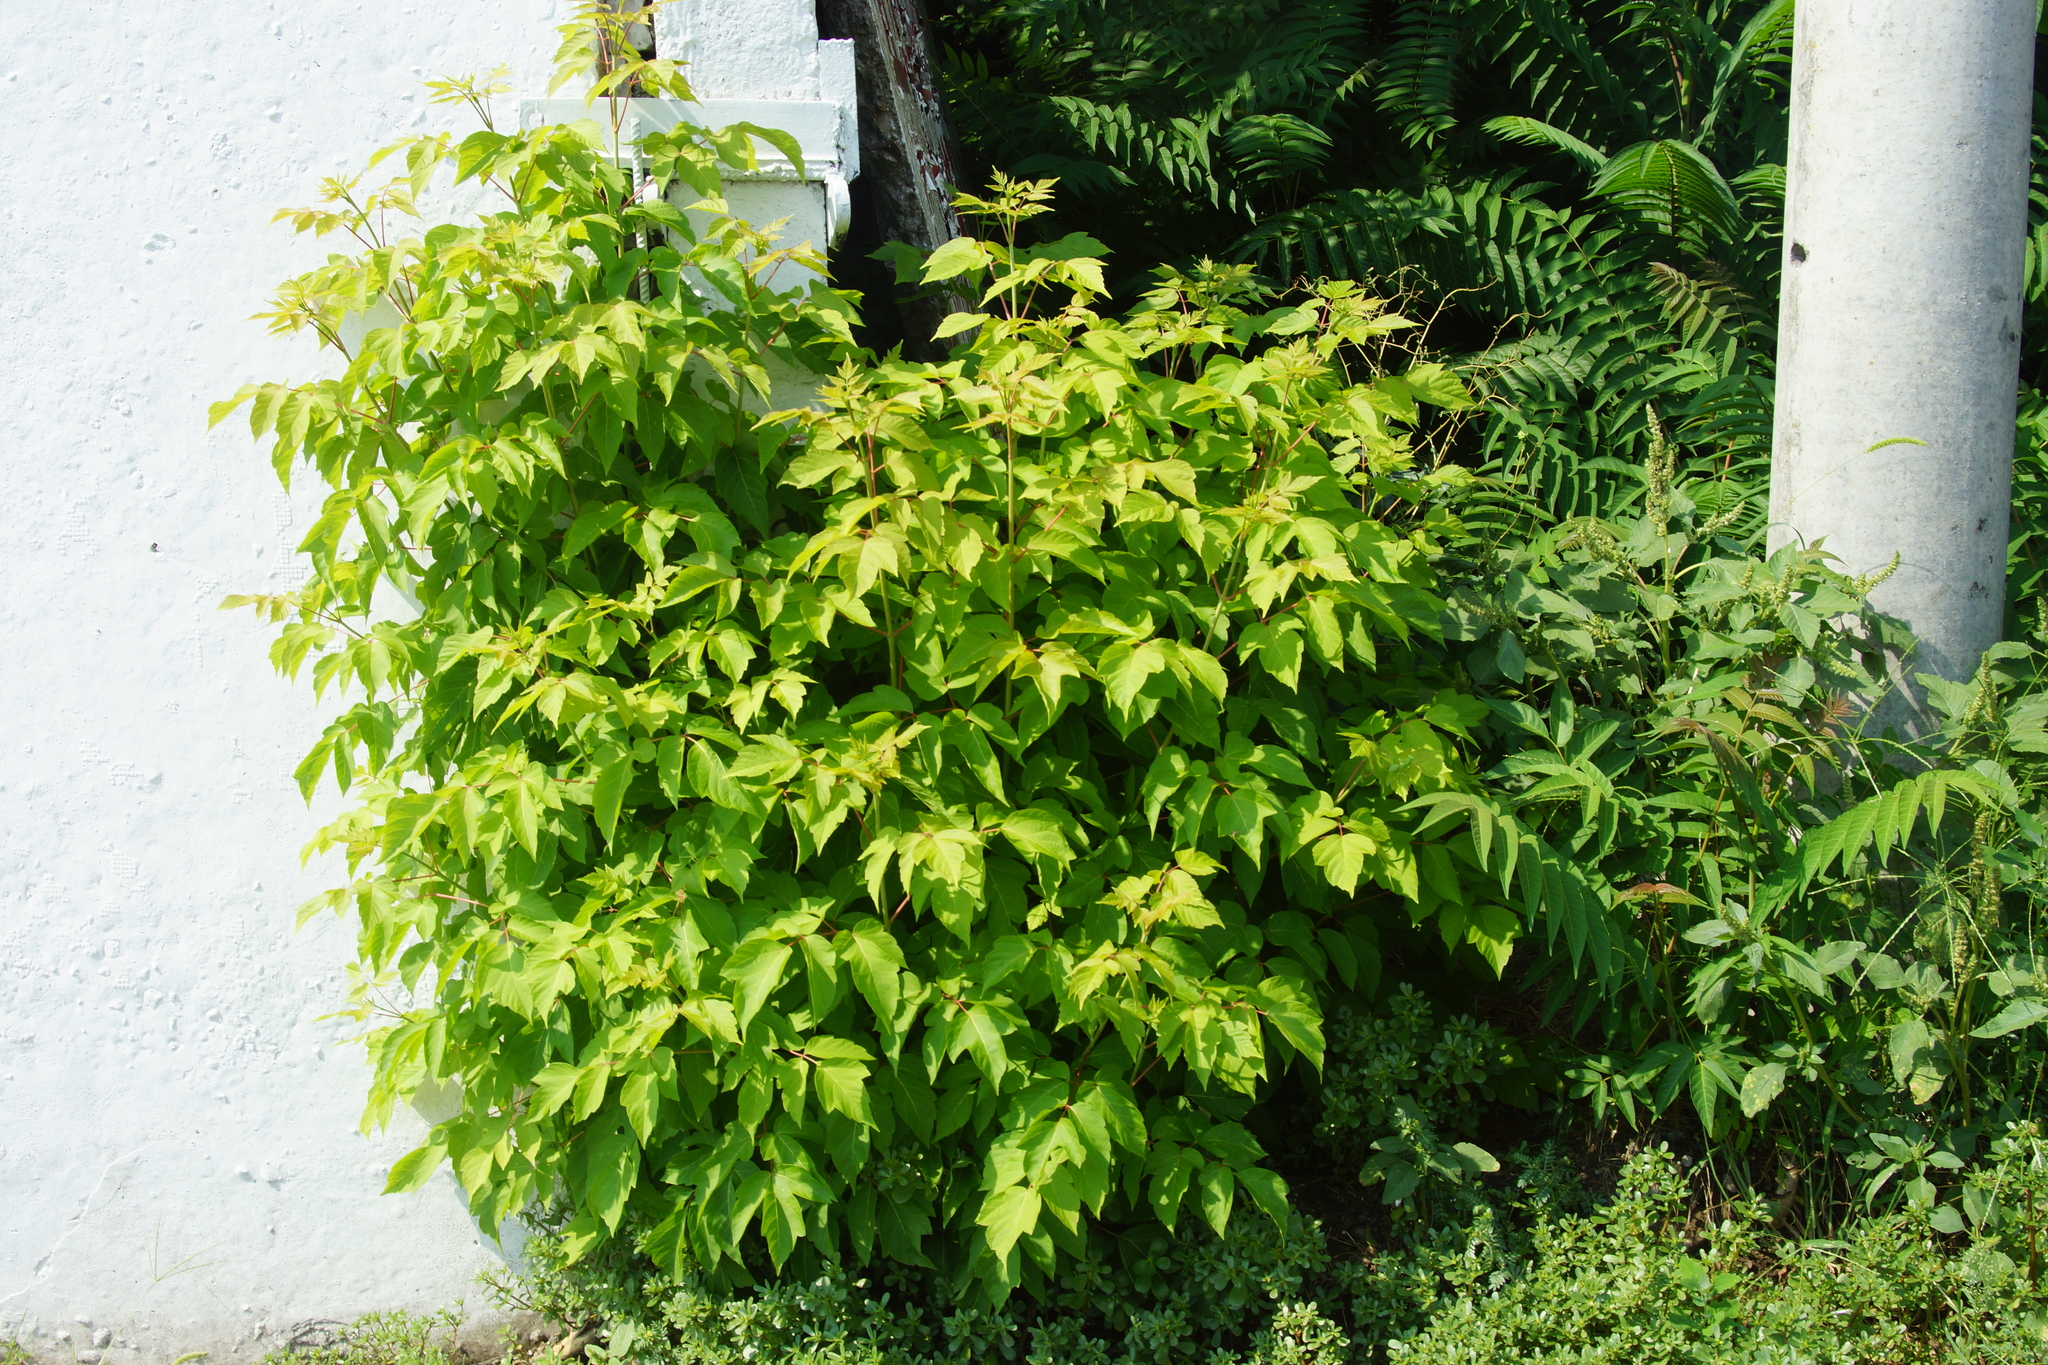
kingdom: Plantae
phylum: Tracheophyta
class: Magnoliopsida
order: Sapindales
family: Sapindaceae
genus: Acer
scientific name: Acer negundo
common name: Ashleaf maple
